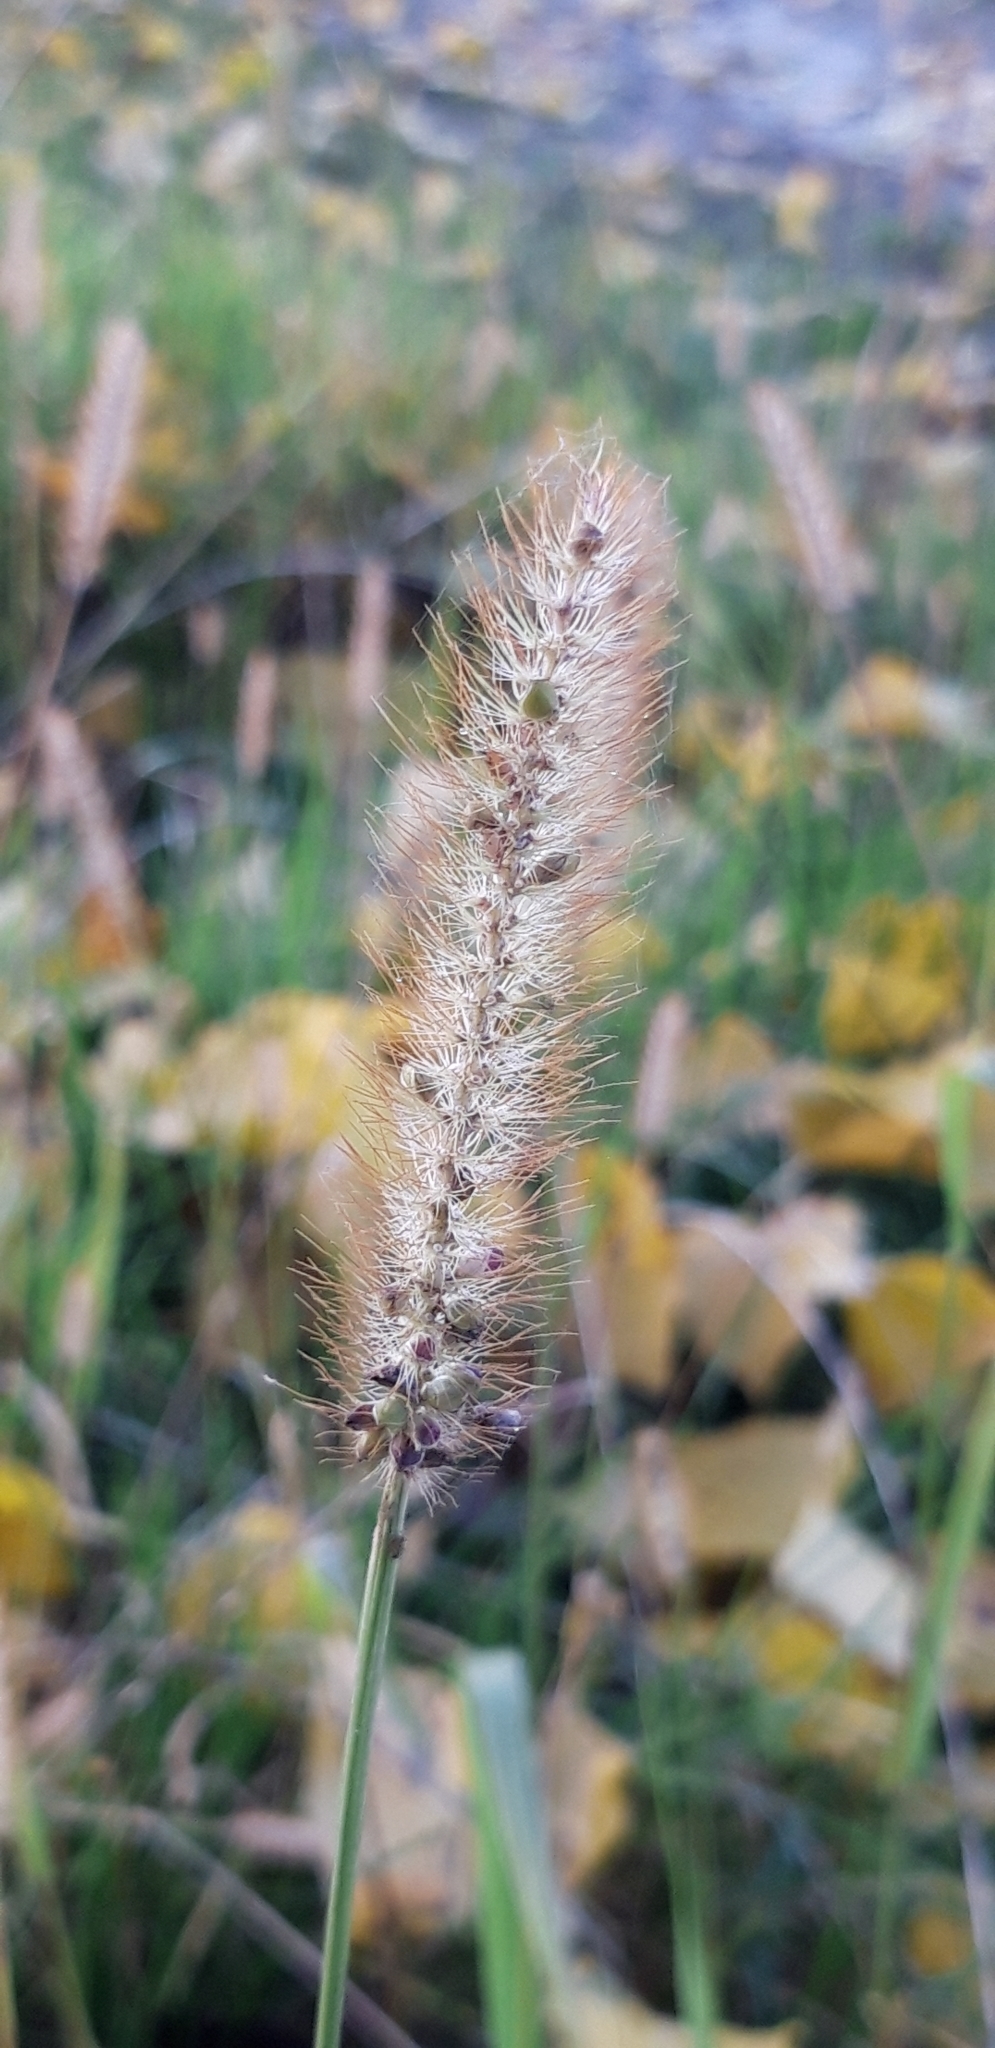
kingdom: Plantae
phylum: Tracheophyta
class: Liliopsida
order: Poales
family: Poaceae
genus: Setaria
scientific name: Setaria pumila
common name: Yellow bristle-grass
